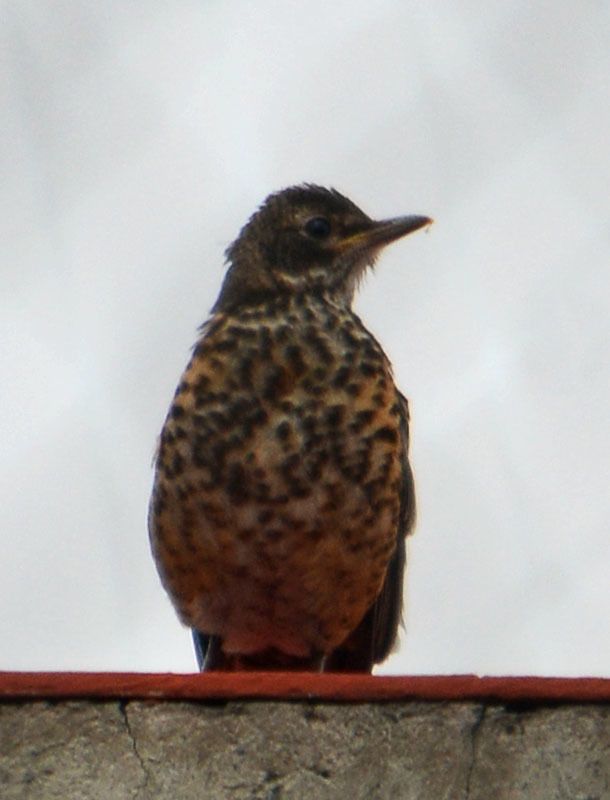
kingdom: Animalia
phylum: Chordata
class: Aves
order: Passeriformes
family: Turdidae
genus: Turdus
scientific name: Turdus migratorius
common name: American robin
